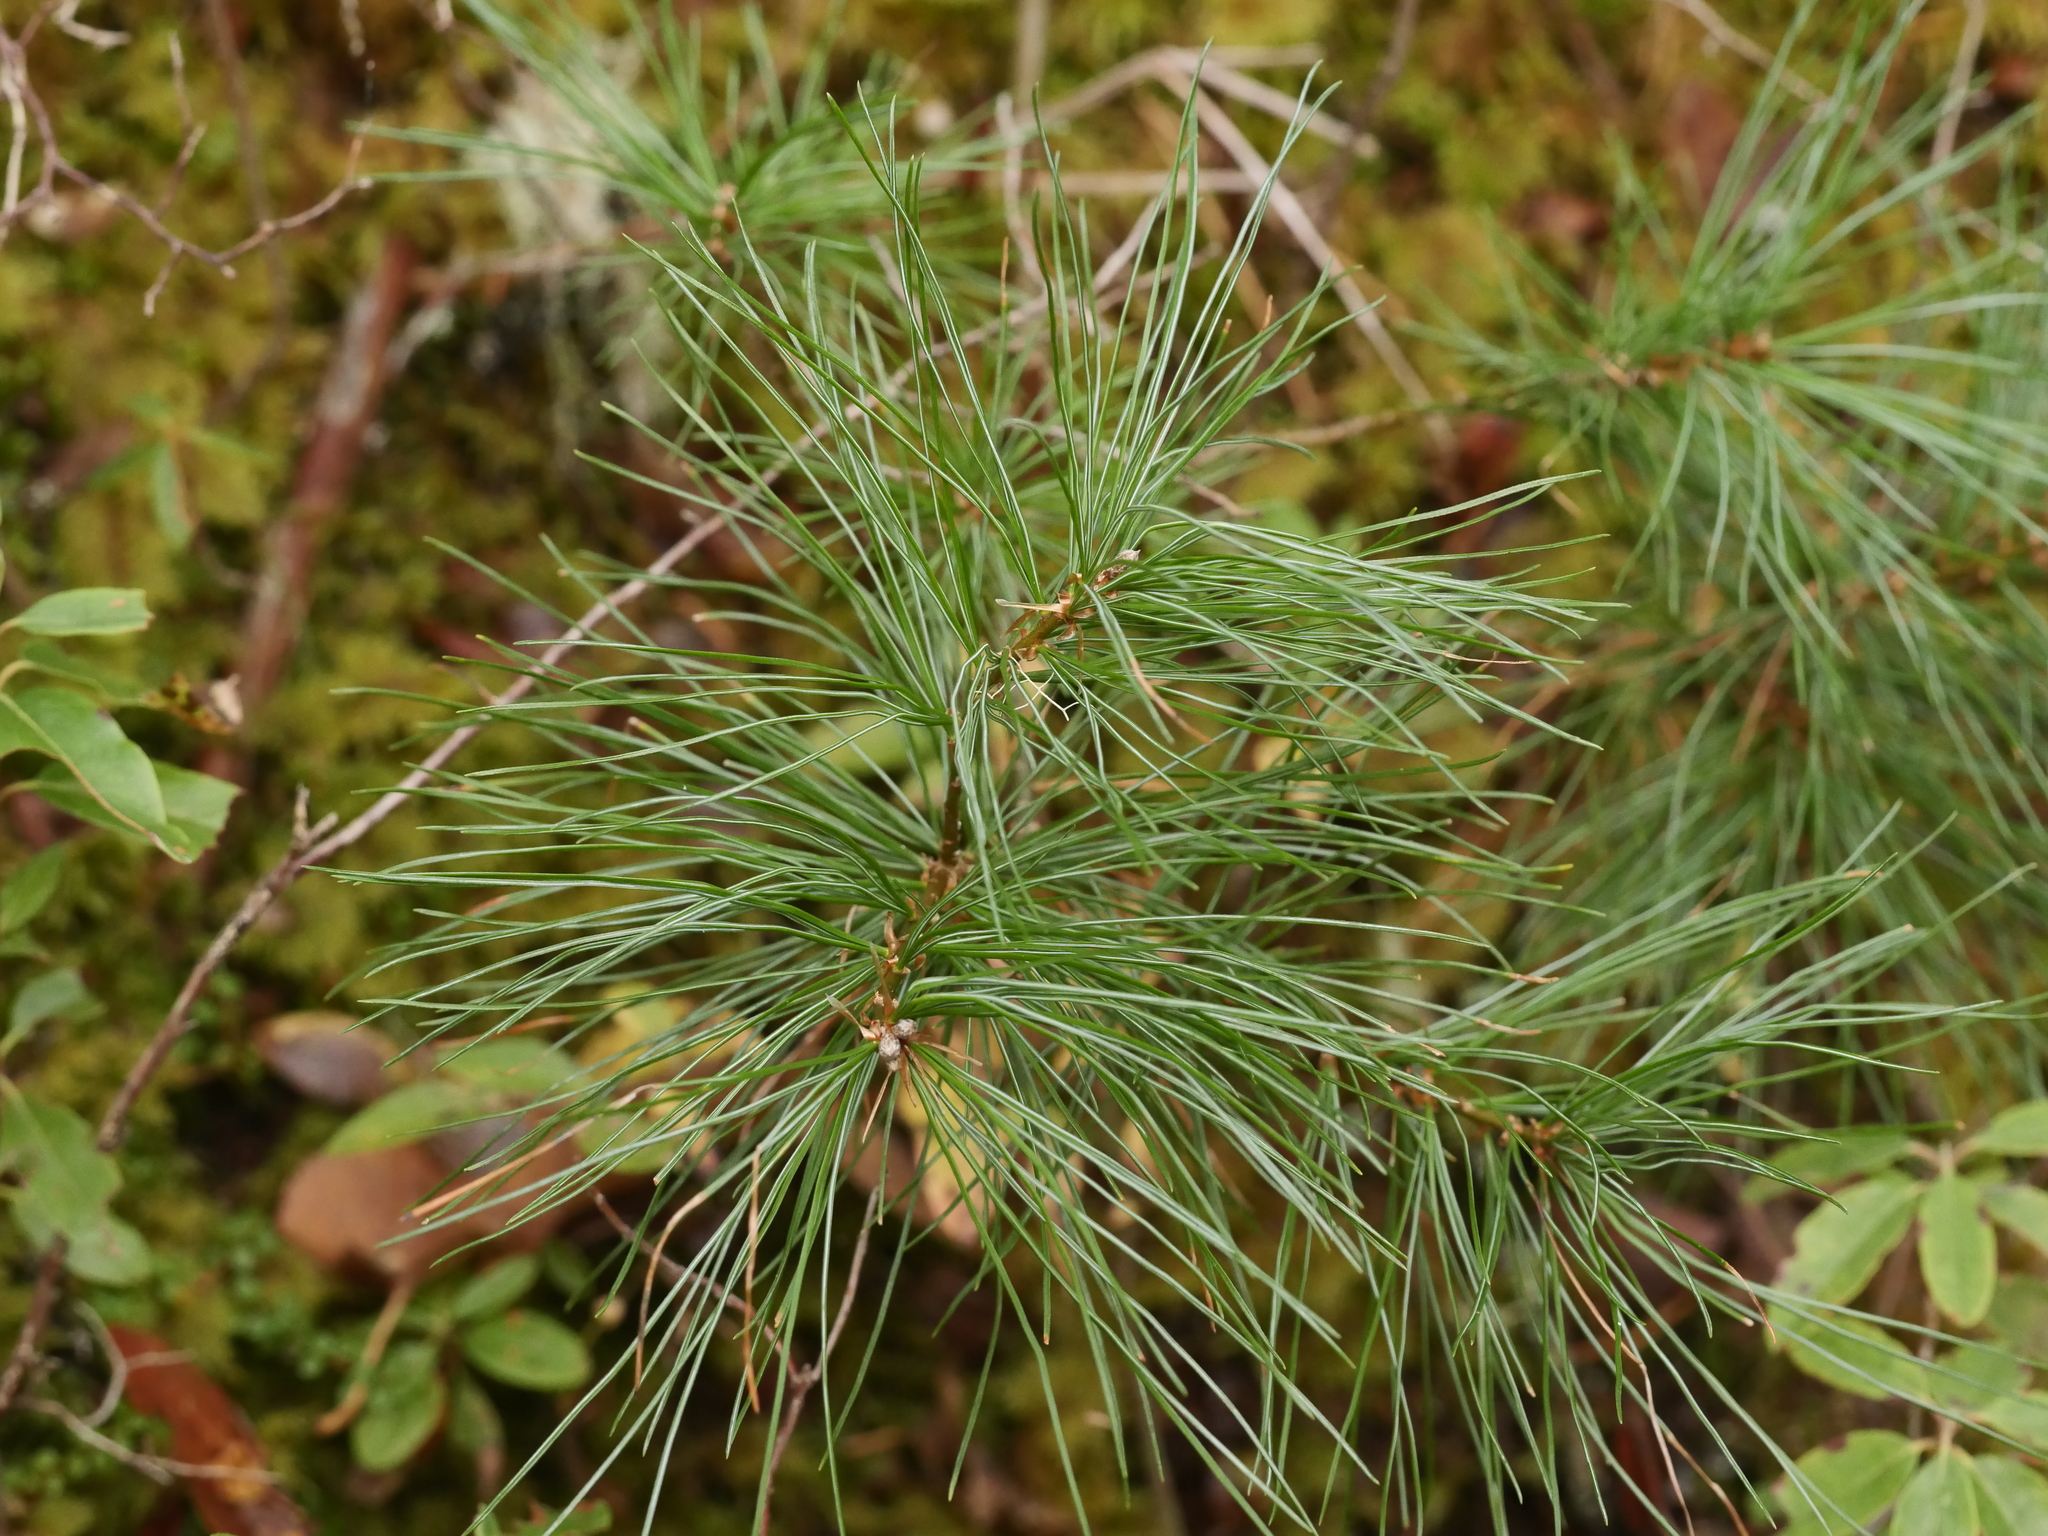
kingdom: Plantae
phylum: Tracheophyta
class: Pinopsida
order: Pinales
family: Pinaceae
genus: Pinus
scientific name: Pinus strobus
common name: Weymouth pine
